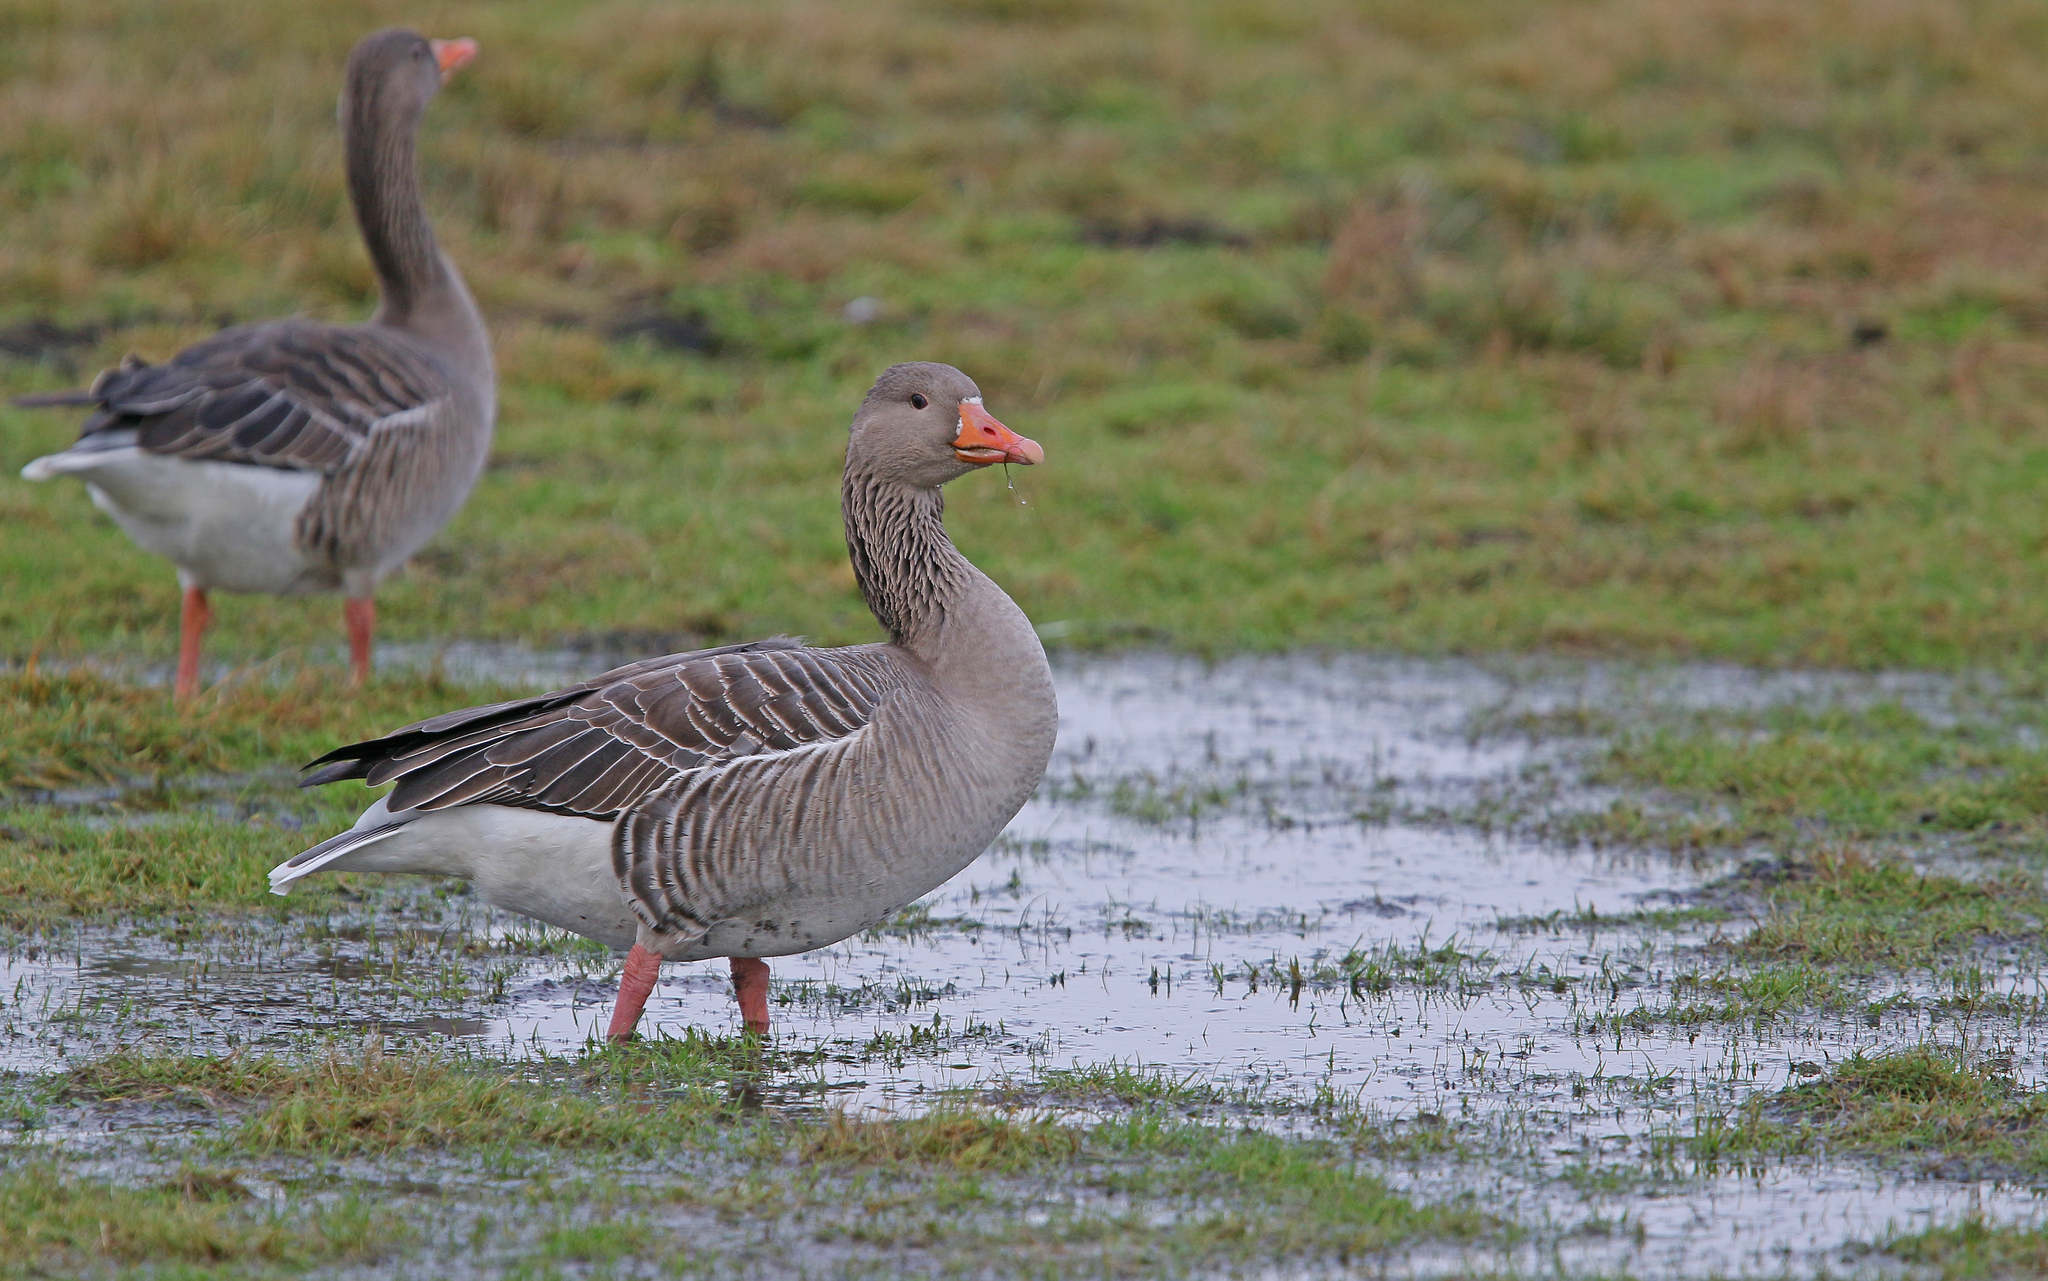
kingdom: Animalia
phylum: Chordata
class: Aves
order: Anseriformes
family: Anatidae
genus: Anser
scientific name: Anser anser
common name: Greylag goose
